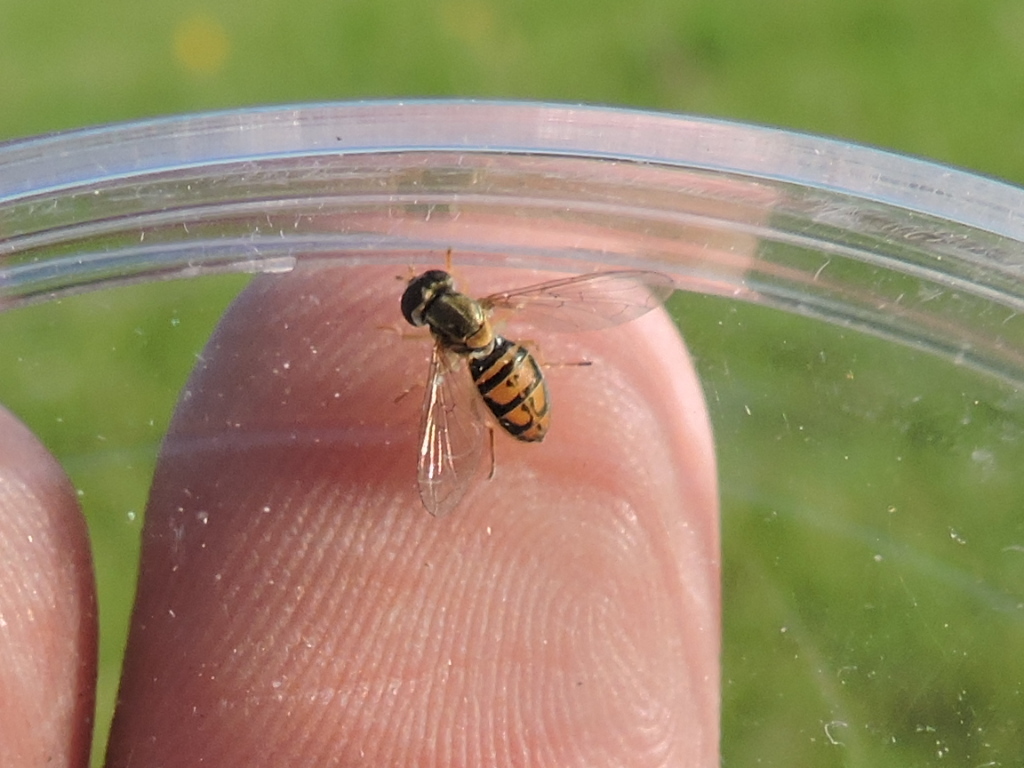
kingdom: Animalia
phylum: Arthropoda
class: Insecta
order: Diptera
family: Syrphidae
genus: Toxomerus
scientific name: Toxomerus marginatus
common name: Syrphid fly
